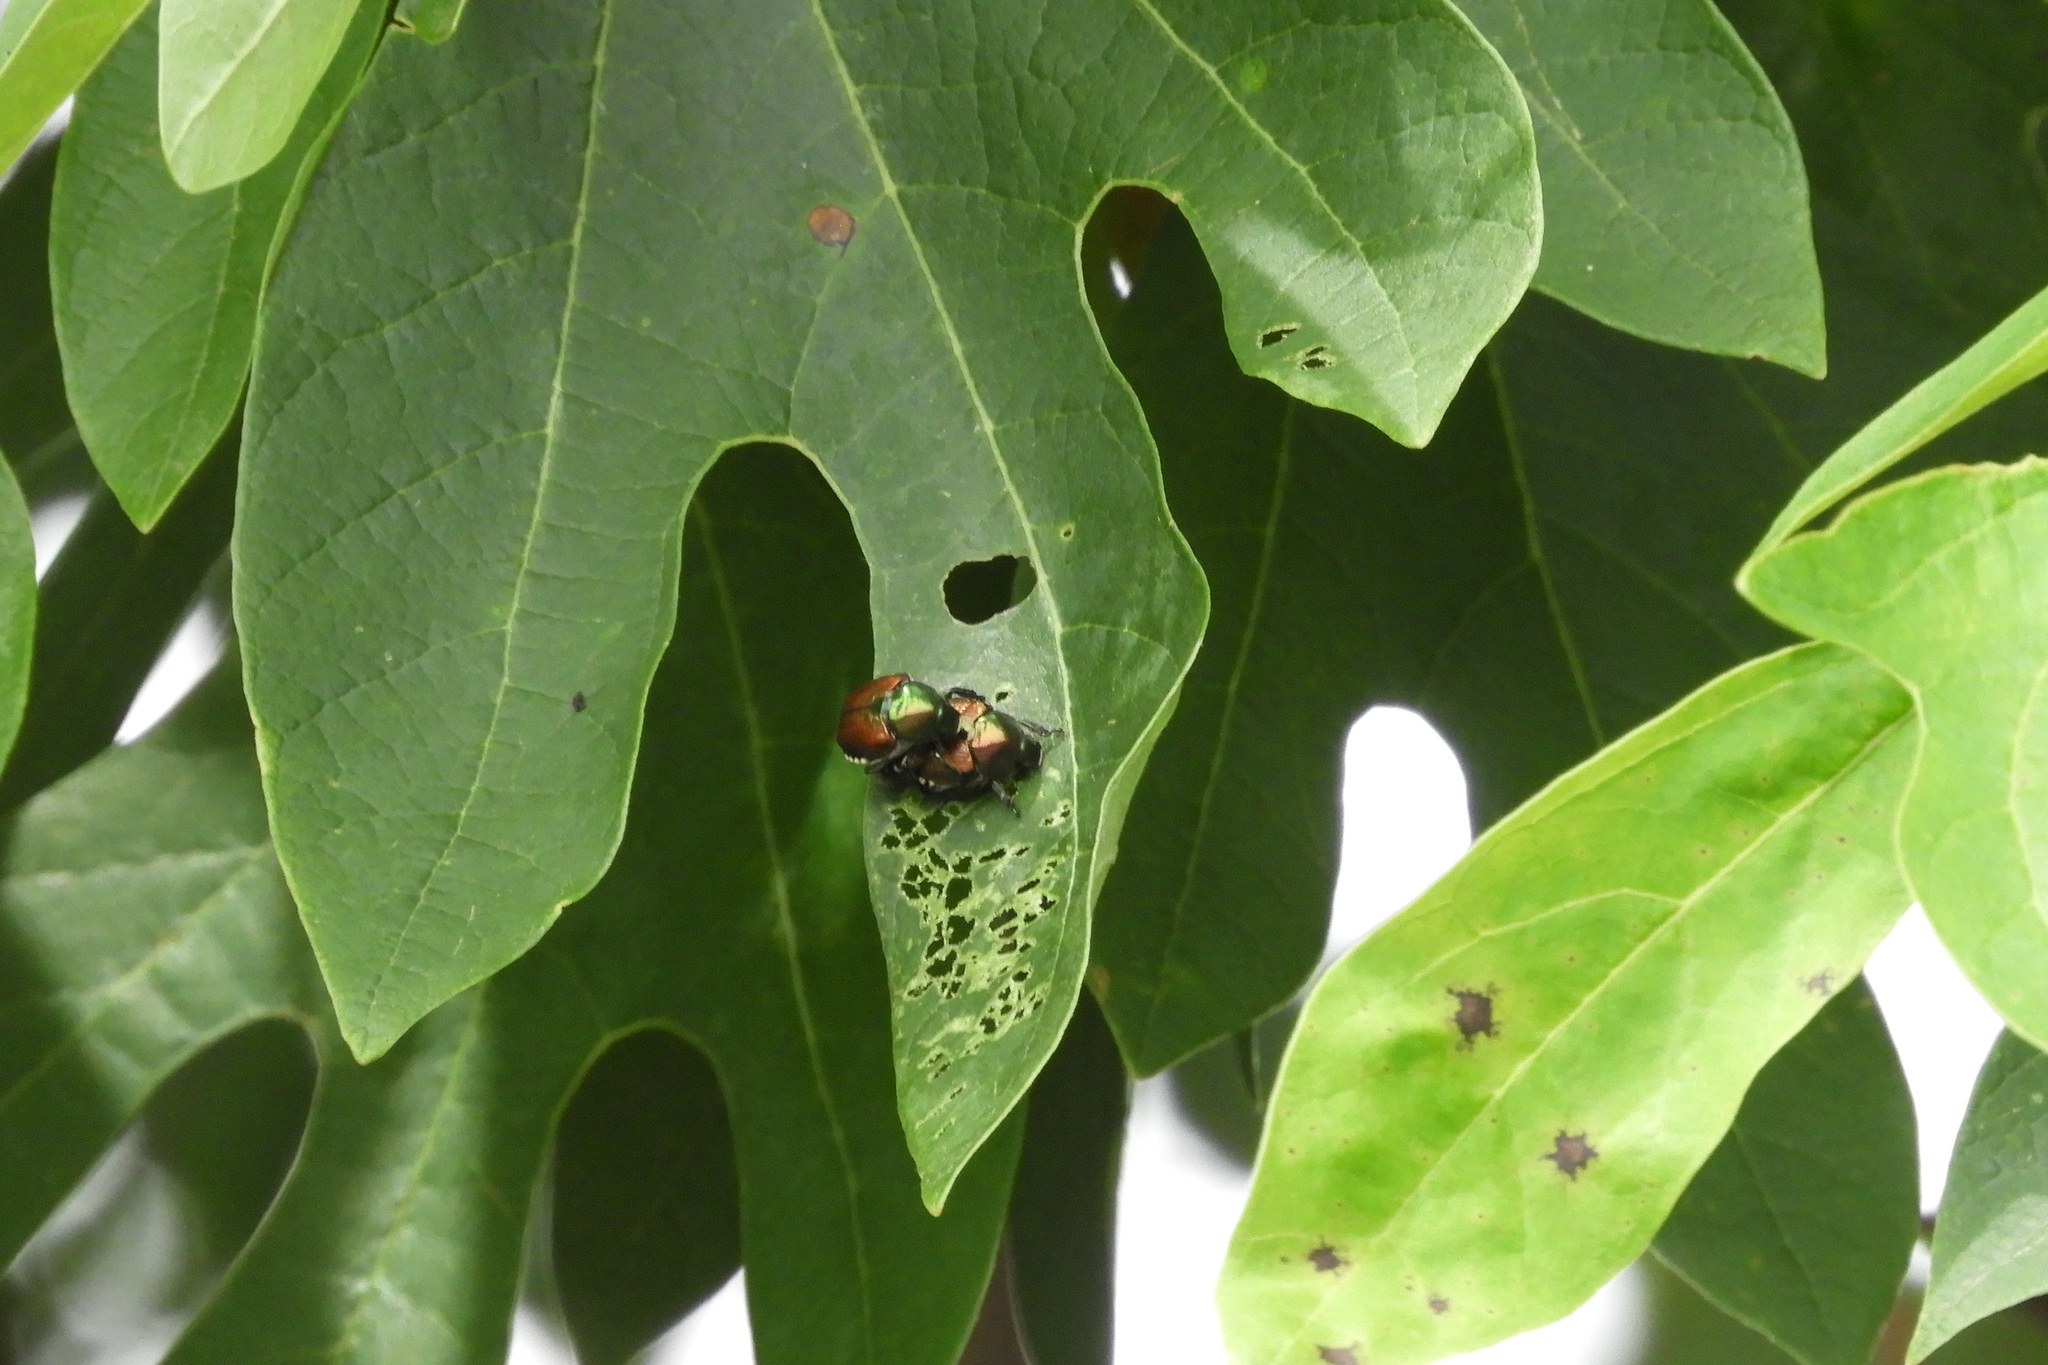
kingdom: Animalia
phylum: Arthropoda
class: Insecta
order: Coleoptera
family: Scarabaeidae
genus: Popillia
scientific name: Popillia japonica
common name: Japanese beetle
